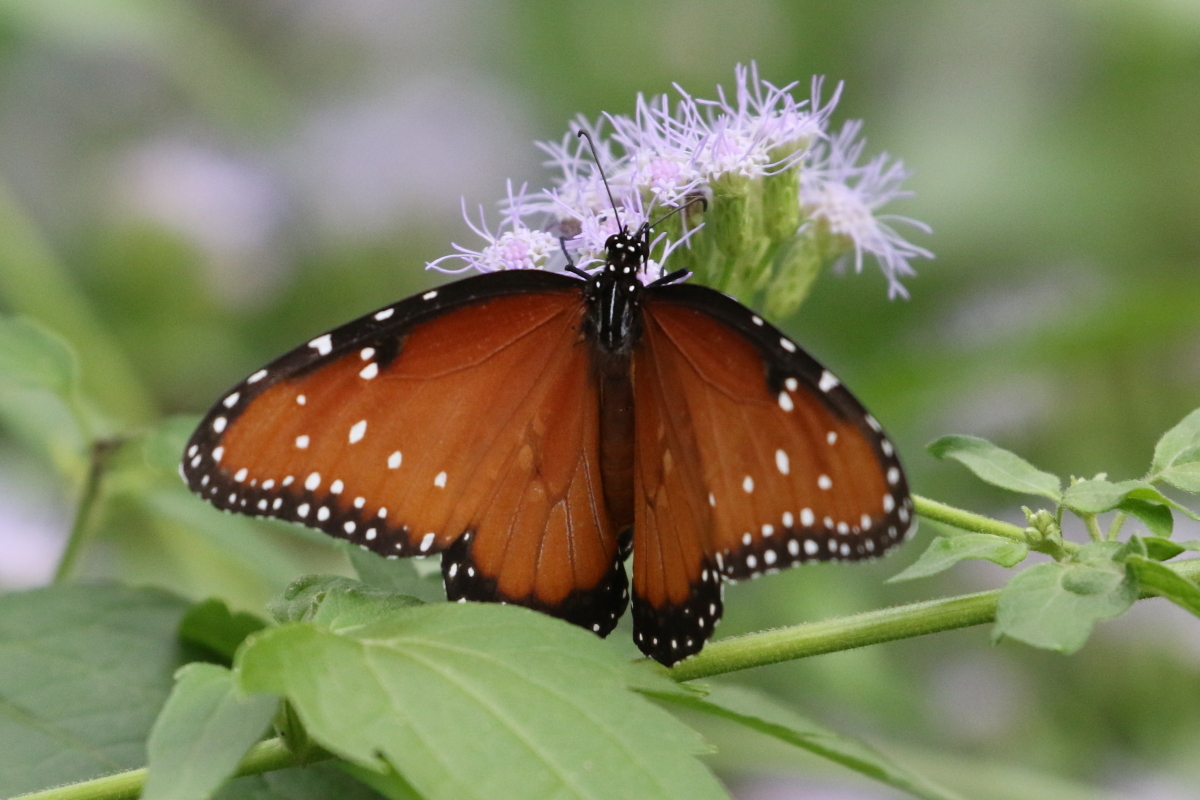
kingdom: Animalia
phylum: Arthropoda
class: Insecta
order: Lepidoptera
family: Nymphalidae
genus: Danaus
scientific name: Danaus gilippus
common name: Queen
